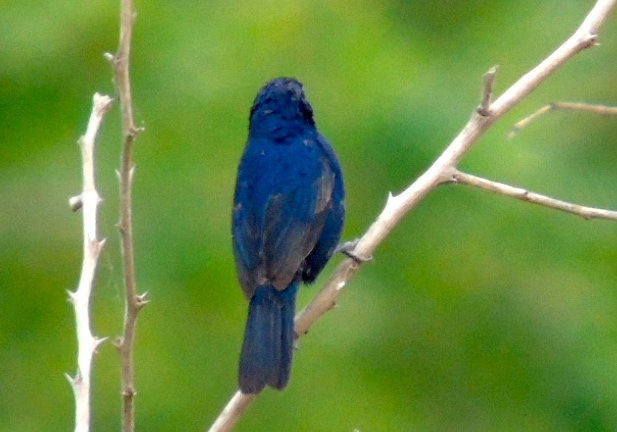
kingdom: Animalia
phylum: Chordata
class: Aves
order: Passeriformes
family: Cardinalidae
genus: Cyanocompsa
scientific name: Cyanocompsa parellina
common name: Blue bunting
